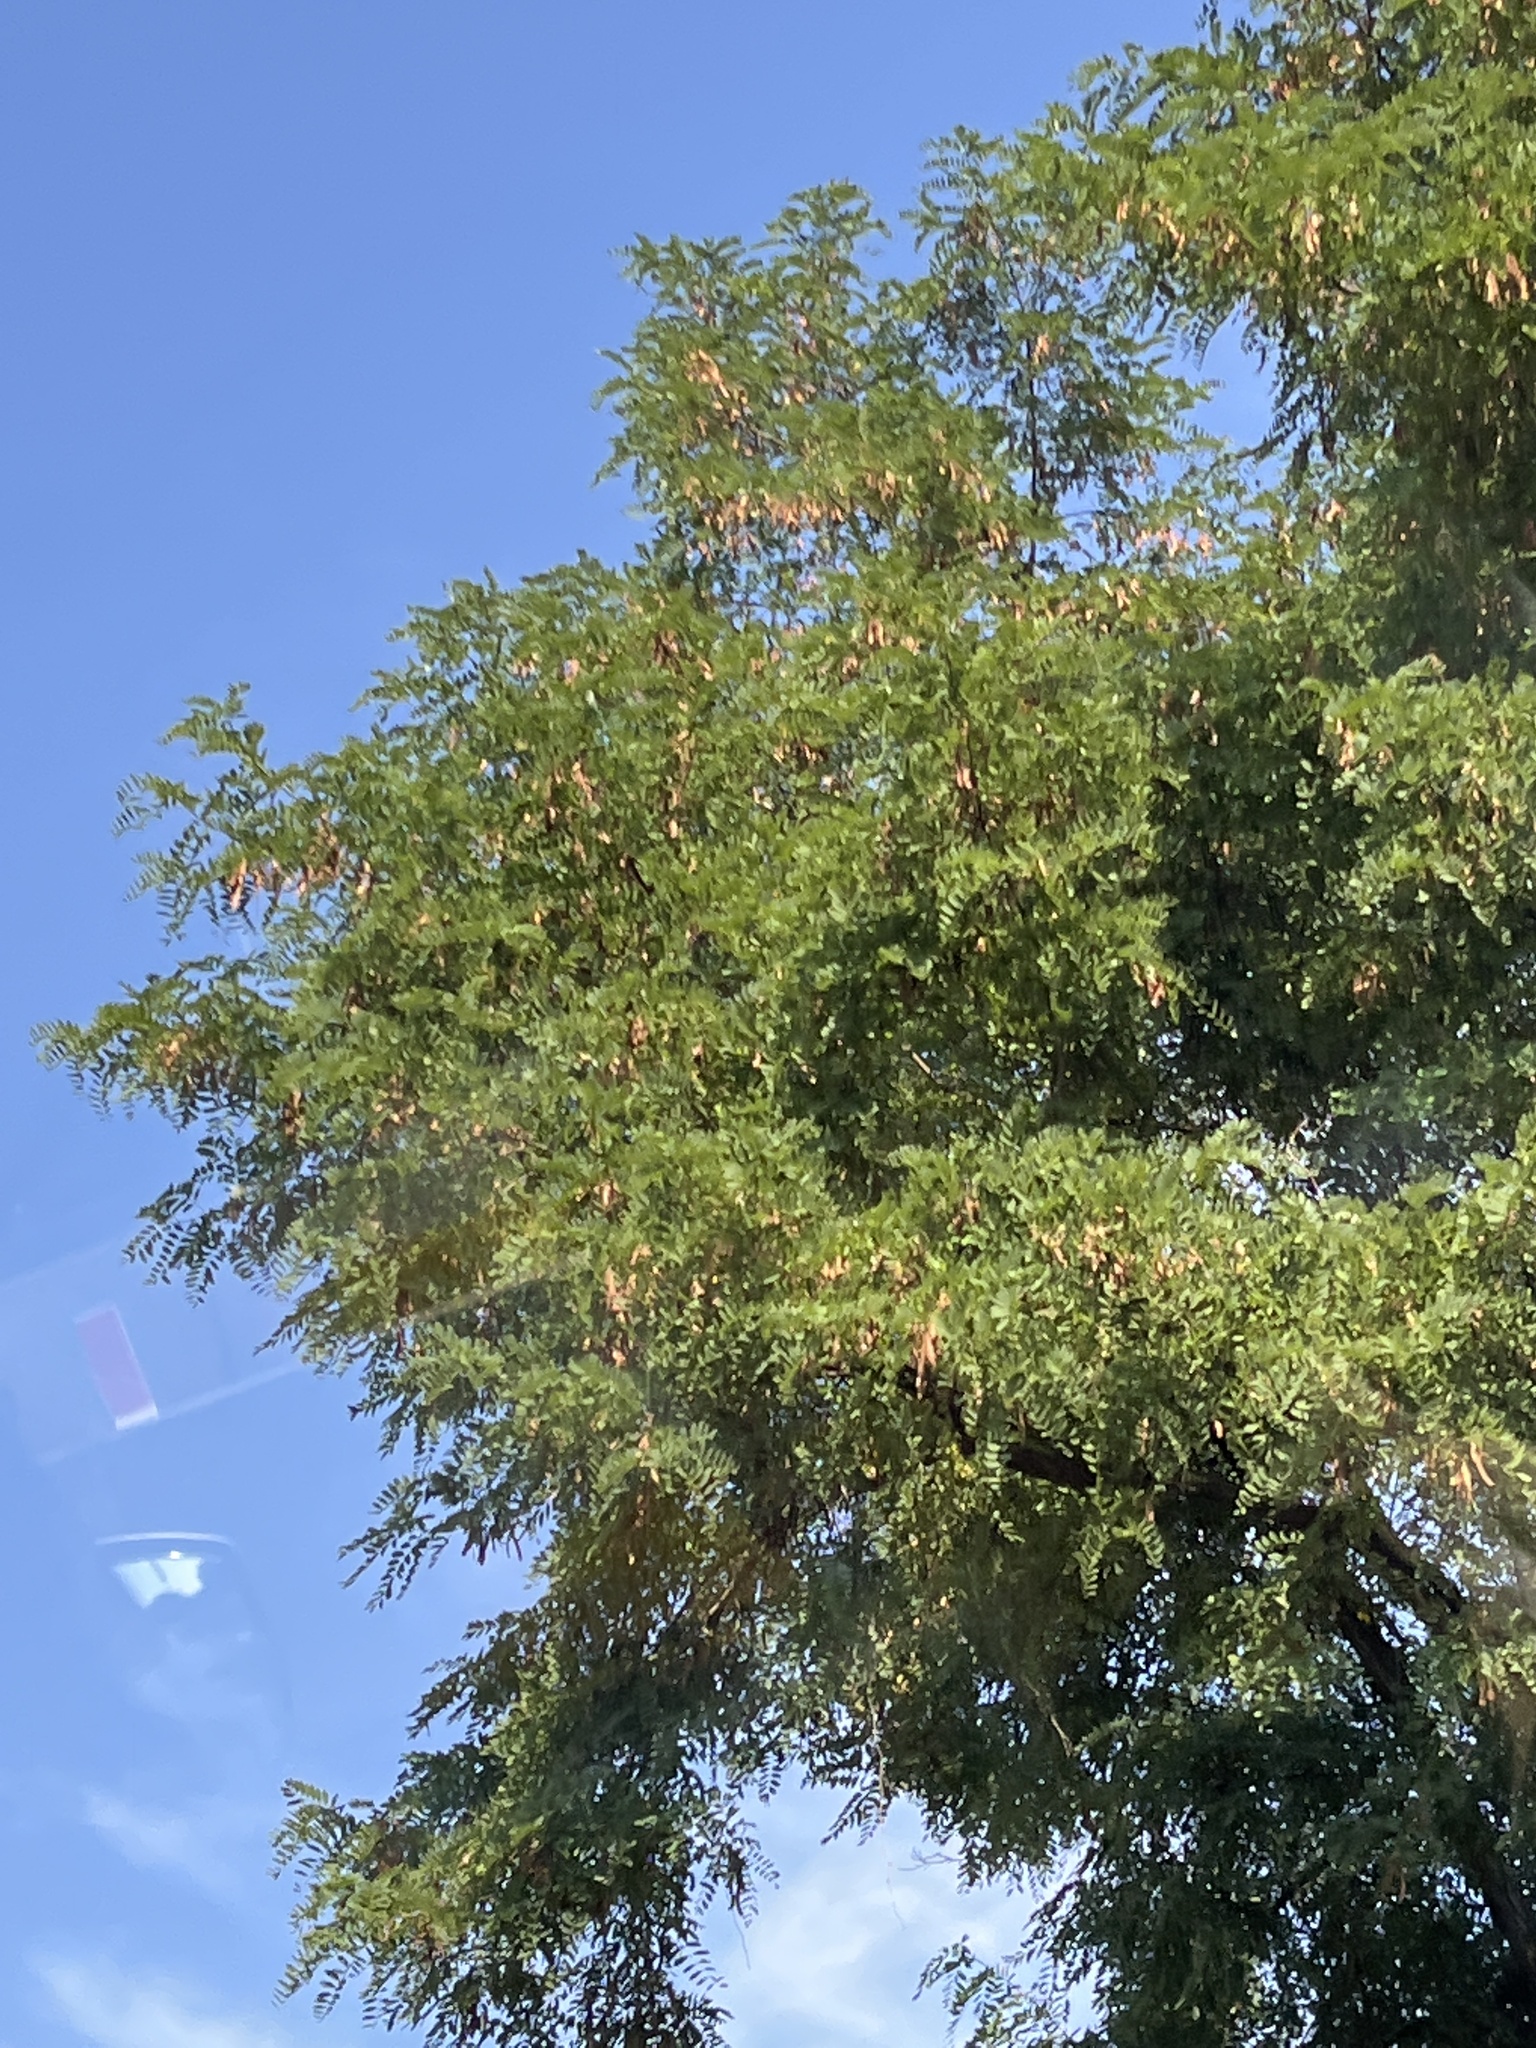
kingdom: Plantae
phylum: Tracheophyta
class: Magnoliopsida
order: Fabales
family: Fabaceae
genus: Robinia
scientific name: Robinia pseudoacacia
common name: Black locust
